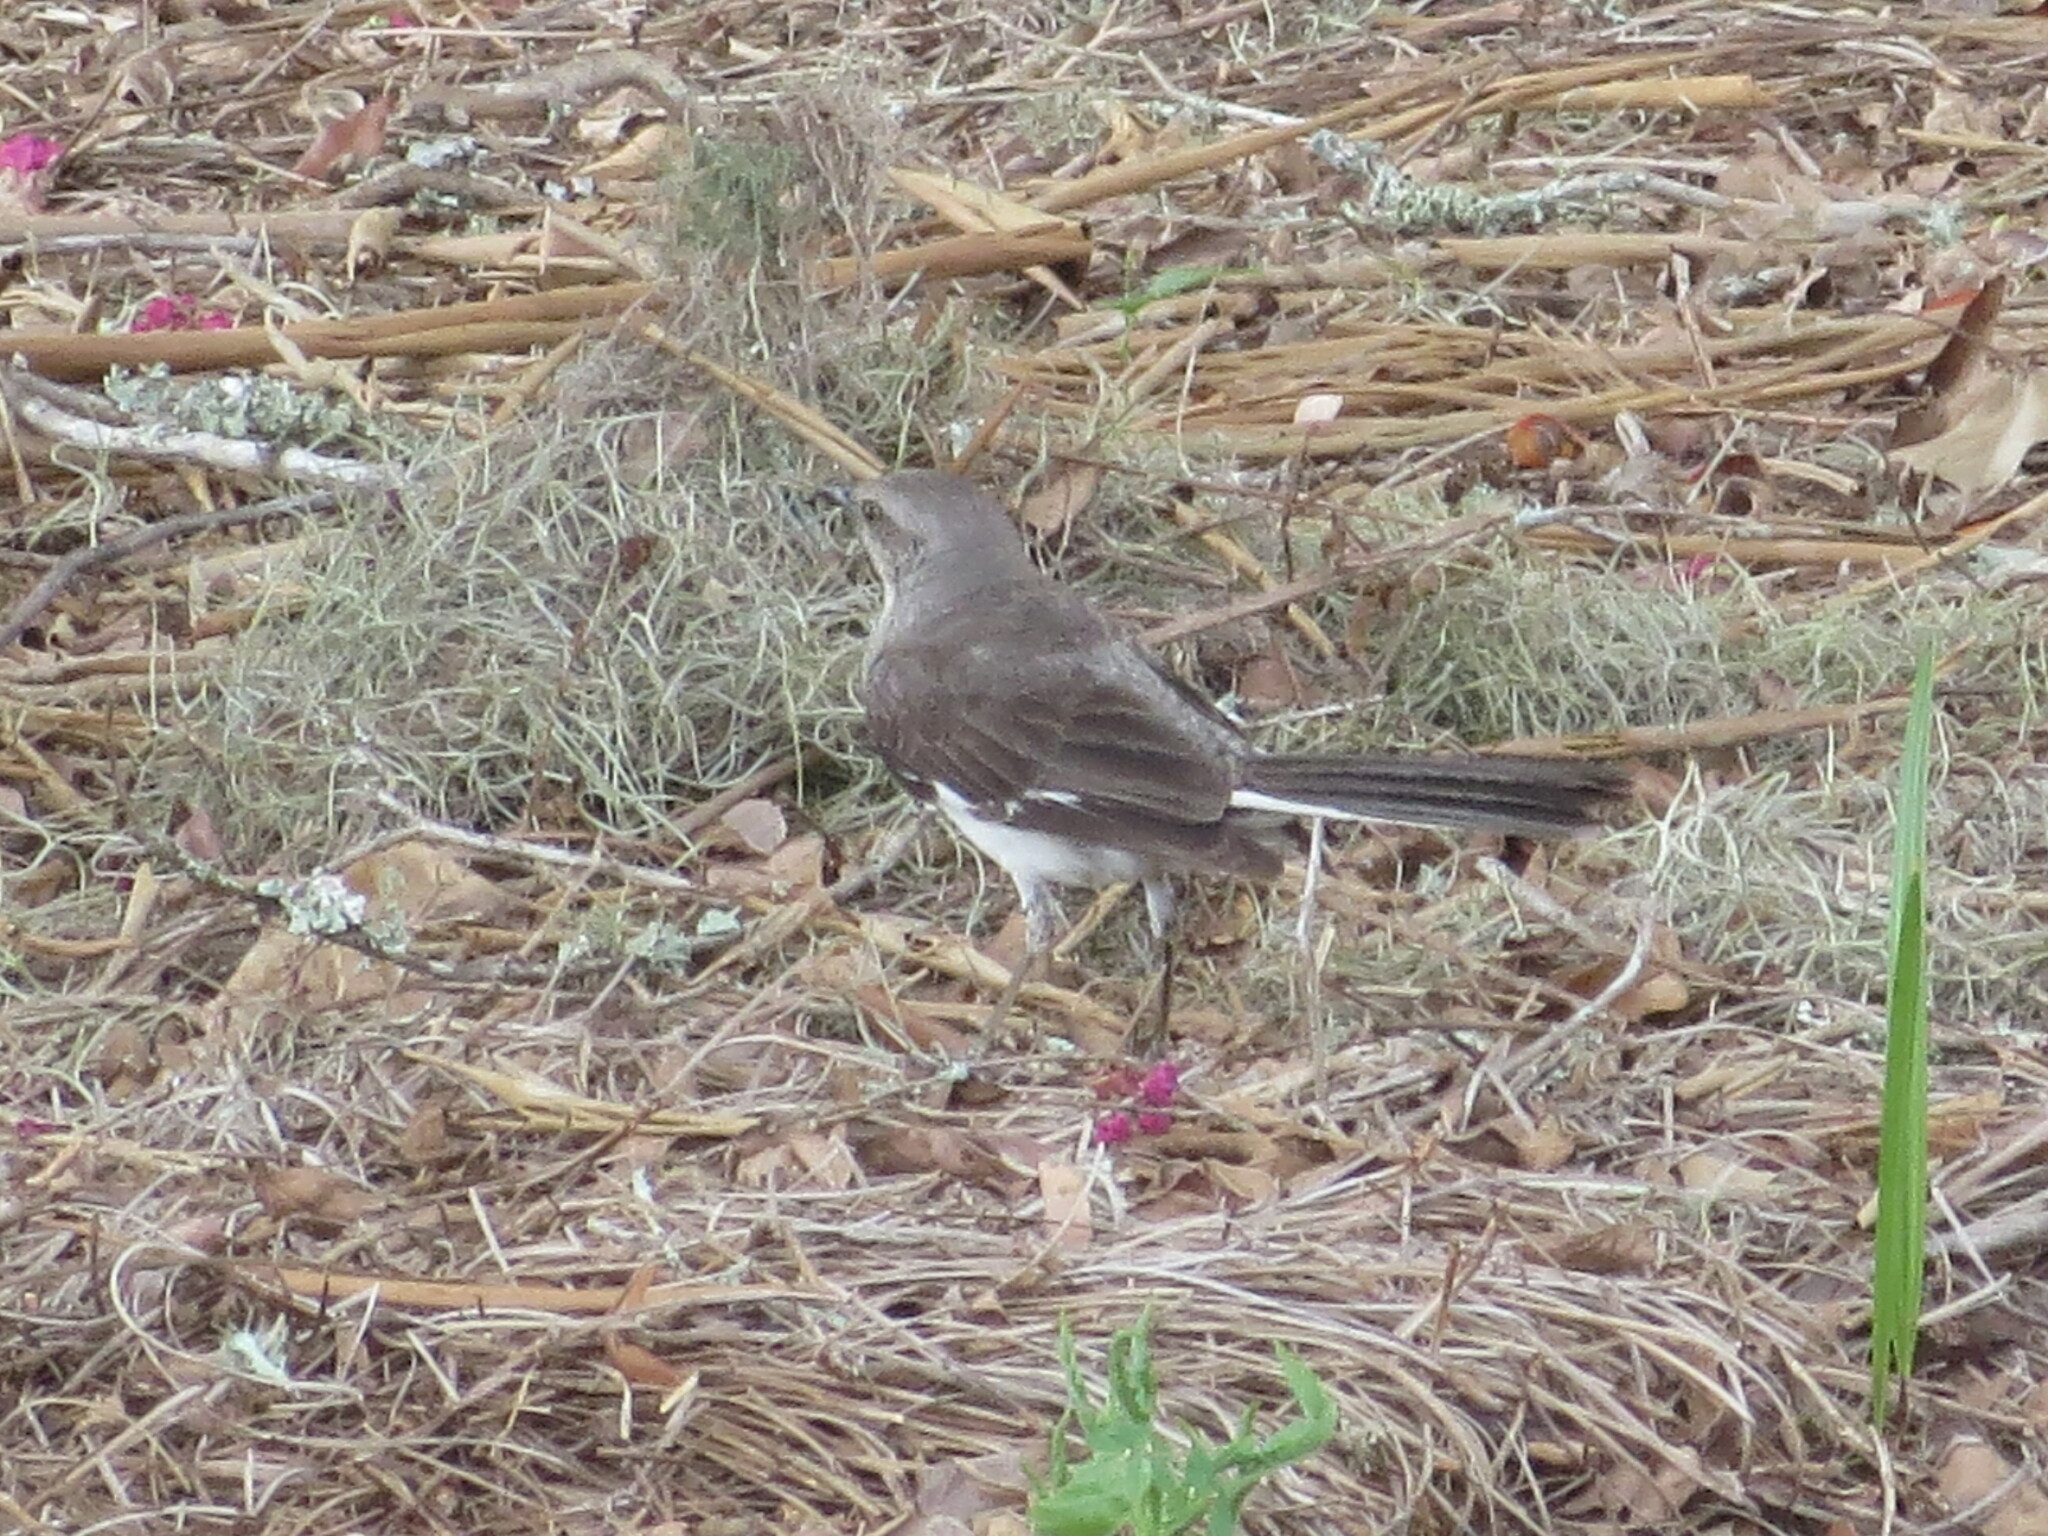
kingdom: Animalia
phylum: Chordata
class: Aves
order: Passeriformes
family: Mimidae
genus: Mimus
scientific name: Mimus polyglottos
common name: Northern mockingbird
